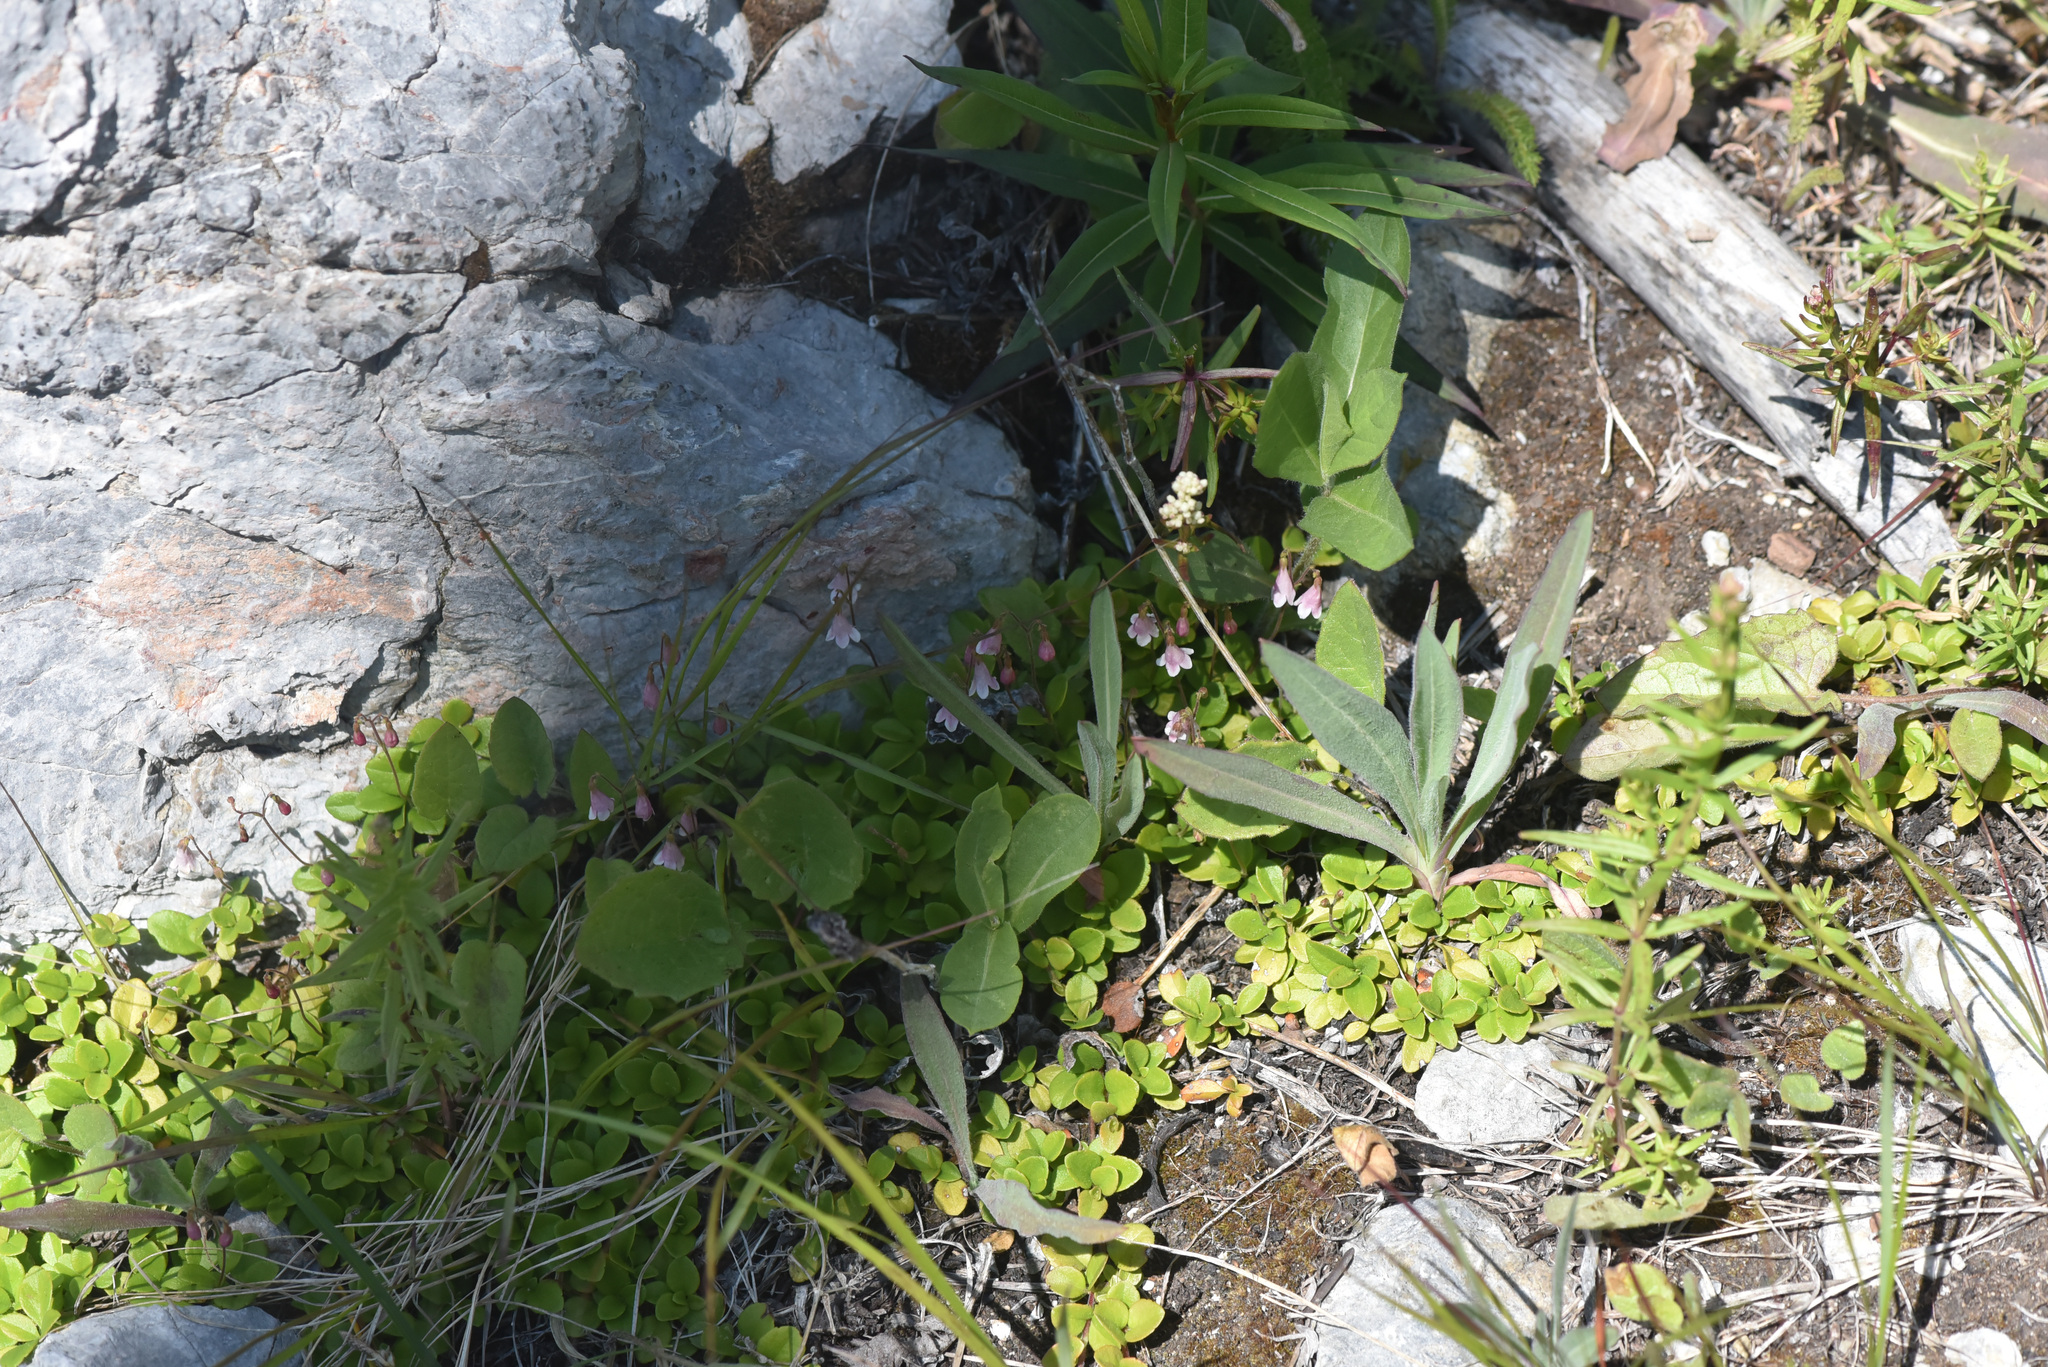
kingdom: Plantae
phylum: Tracheophyta
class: Magnoliopsida
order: Dipsacales
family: Caprifoliaceae
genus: Linnaea
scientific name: Linnaea borealis
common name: Twinflower
